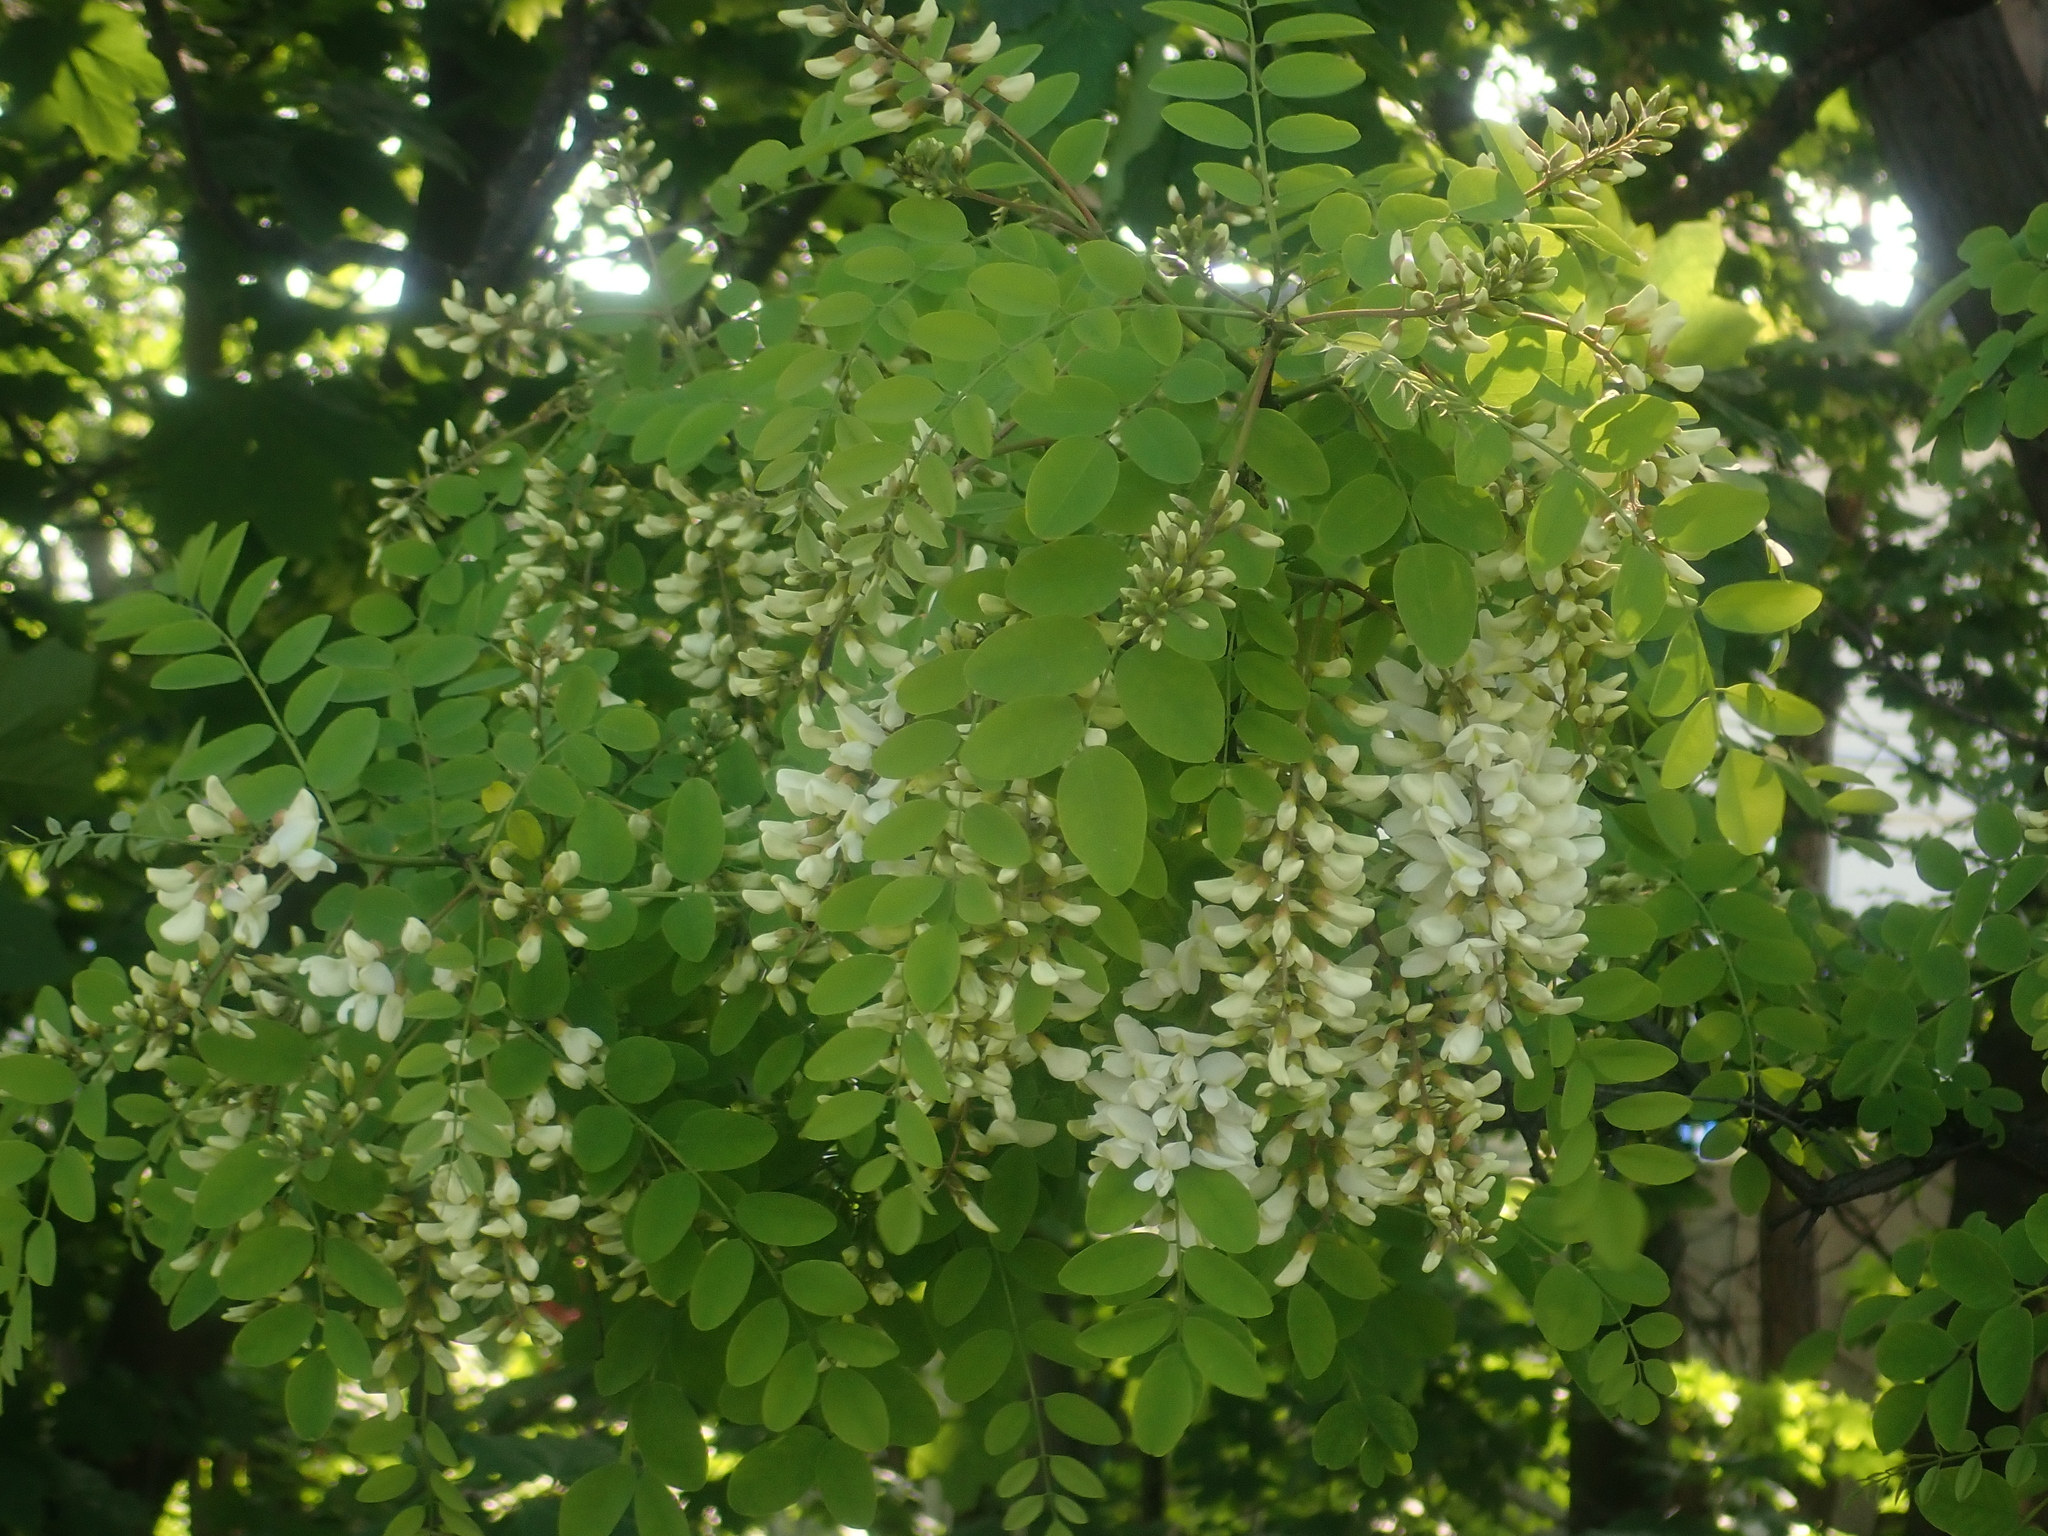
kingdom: Plantae
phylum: Tracheophyta
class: Magnoliopsida
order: Fabales
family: Fabaceae
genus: Robinia
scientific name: Robinia pseudoacacia
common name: Black locust
